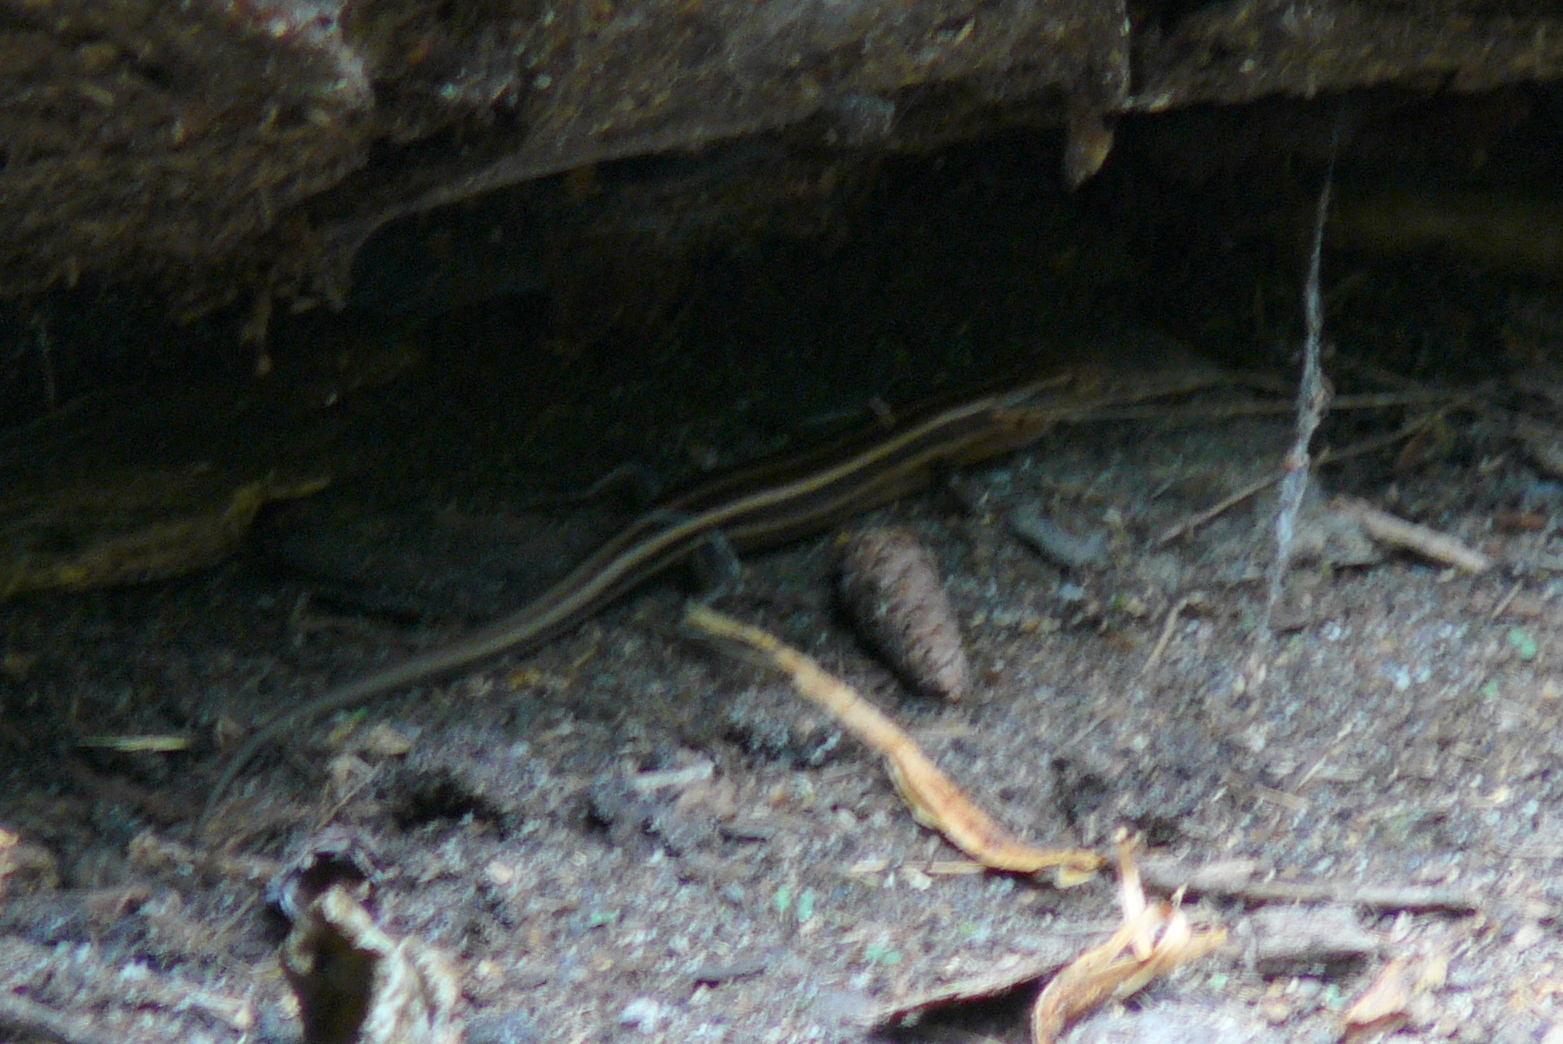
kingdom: Animalia
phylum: Chordata
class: Squamata
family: Scincidae
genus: Plestiodon
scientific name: Plestiodon fasciatus
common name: Five-lined skink
